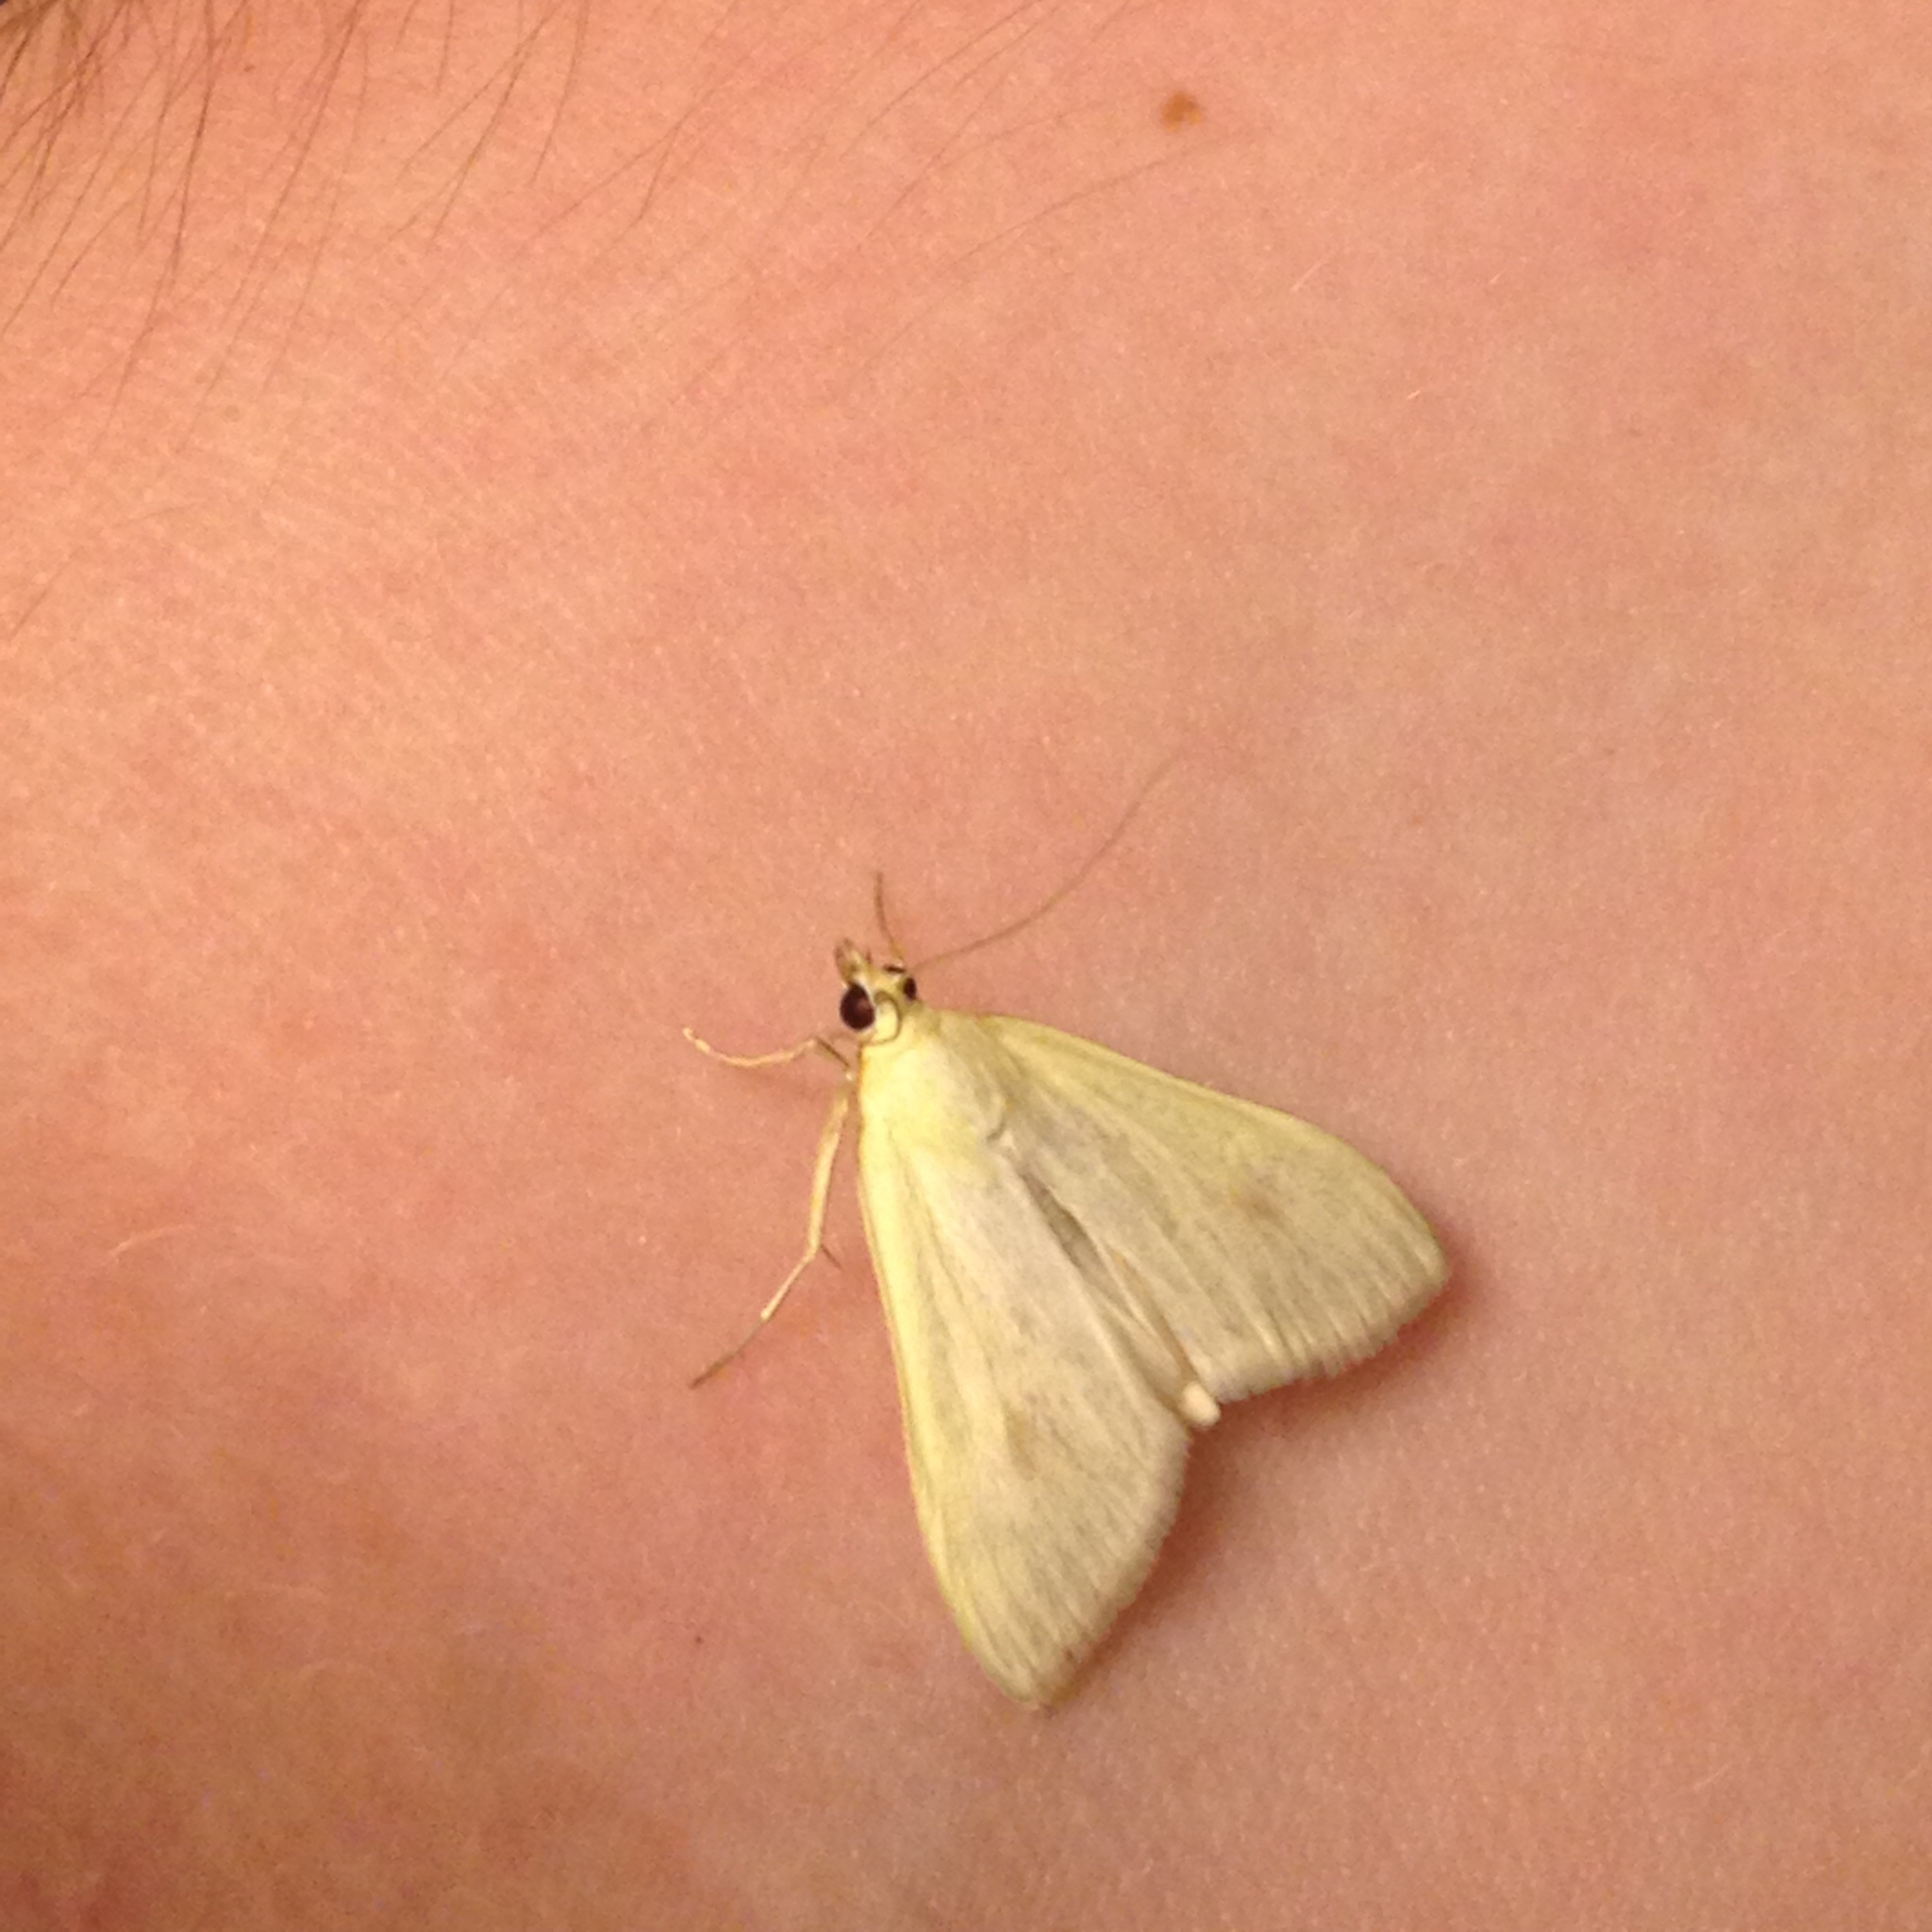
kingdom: Animalia
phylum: Arthropoda
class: Insecta
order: Lepidoptera
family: Crambidae
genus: Sitochroa
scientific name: Sitochroa palealis
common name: Greenish-yellow sitochroa moth
